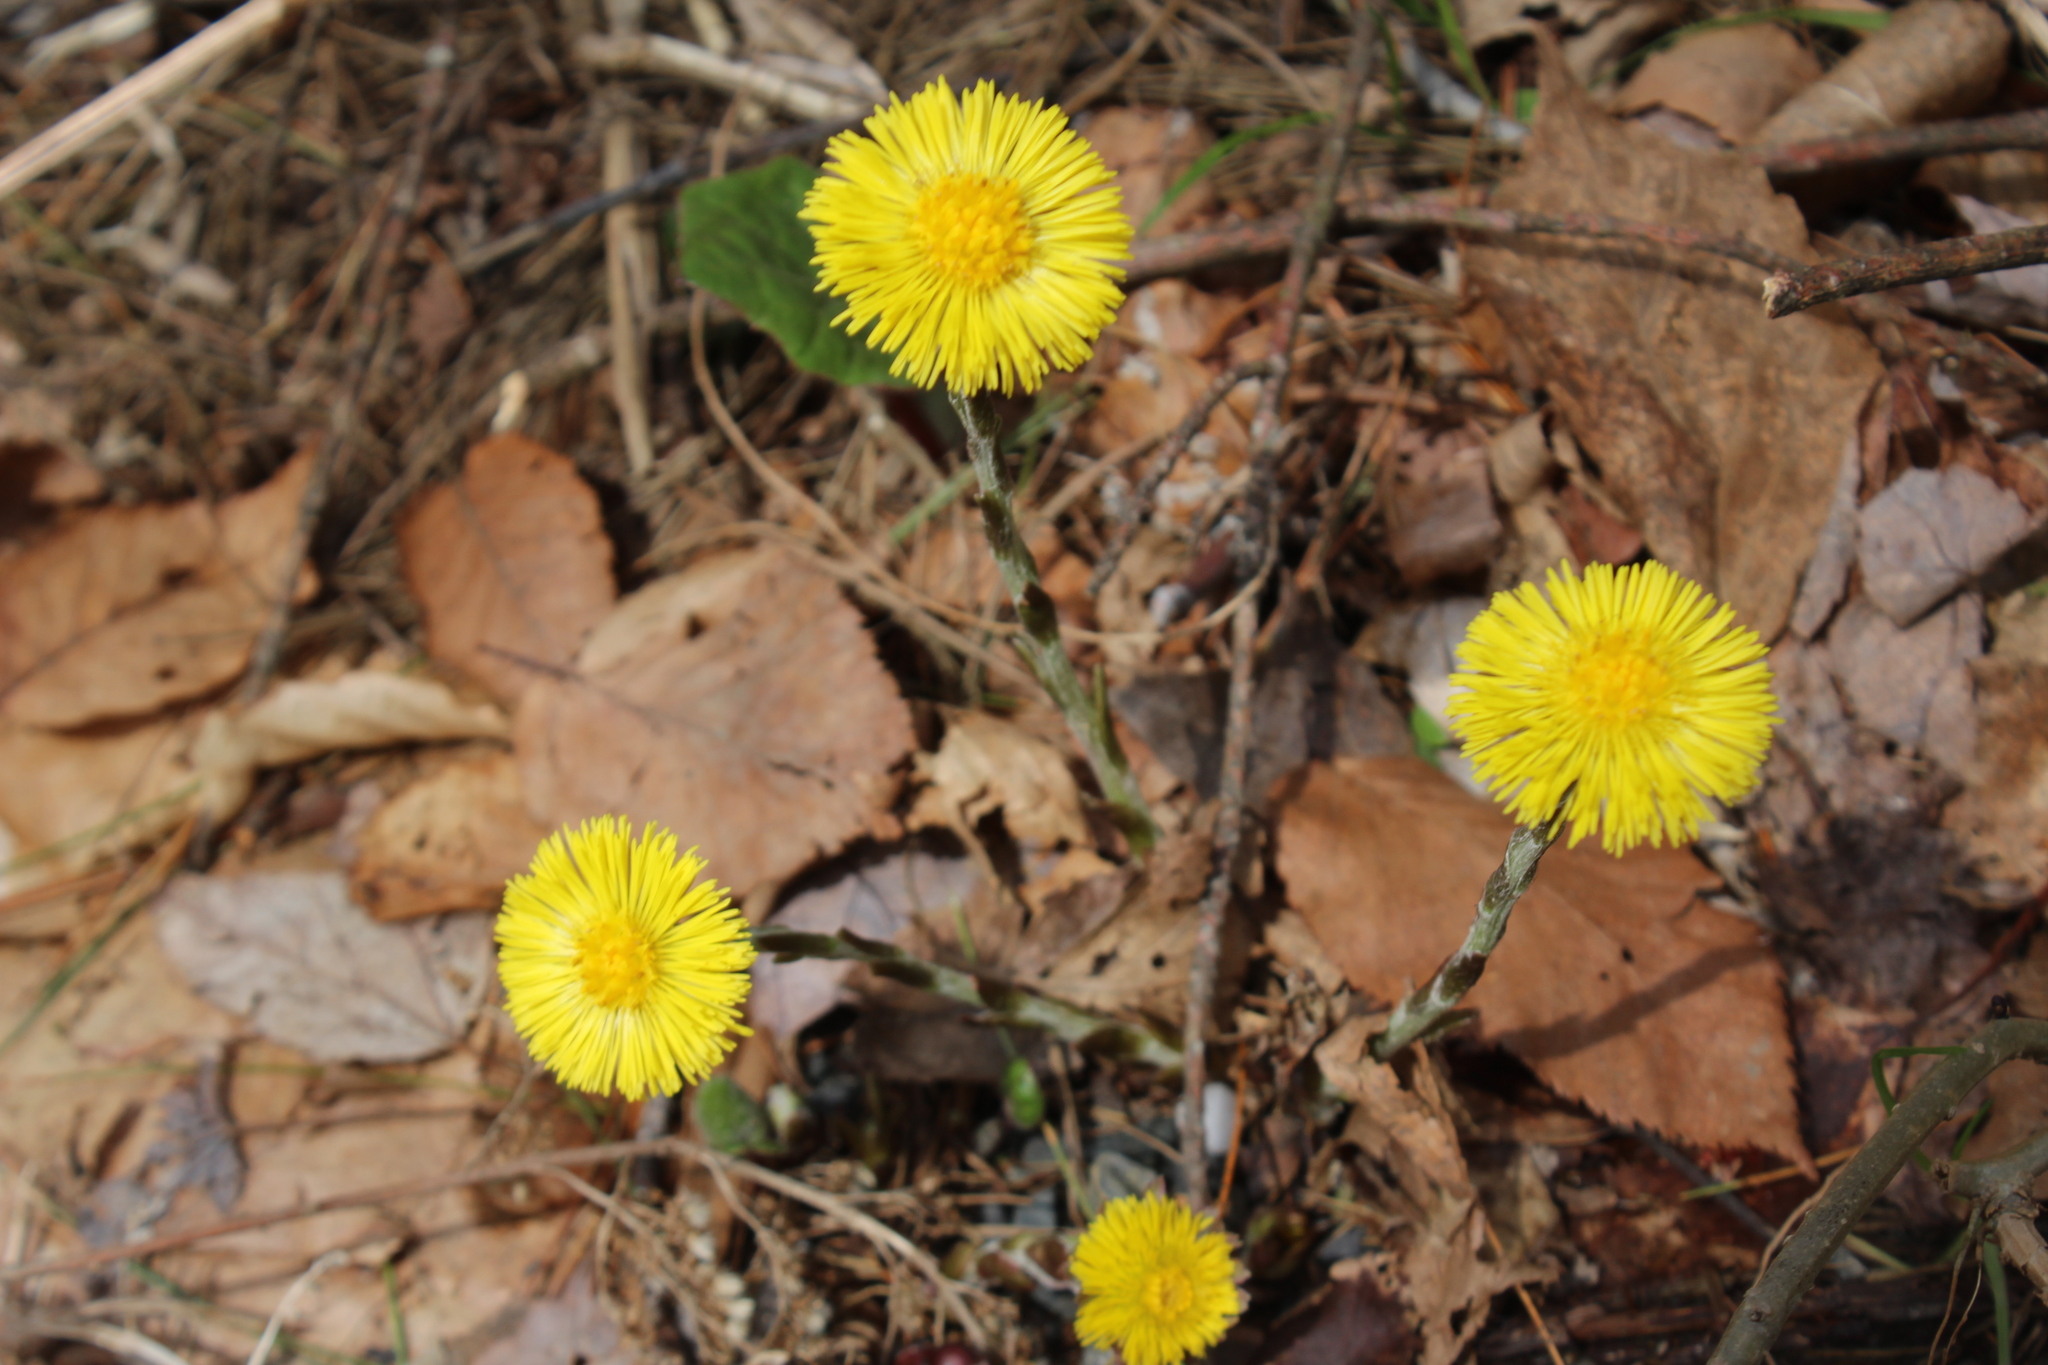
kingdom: Plantae
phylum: Tracheophyta
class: Magnoliopsida
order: Asterales
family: Asteraceae
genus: Tussilago
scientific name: Tussilago farfara
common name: Coltsfoot
